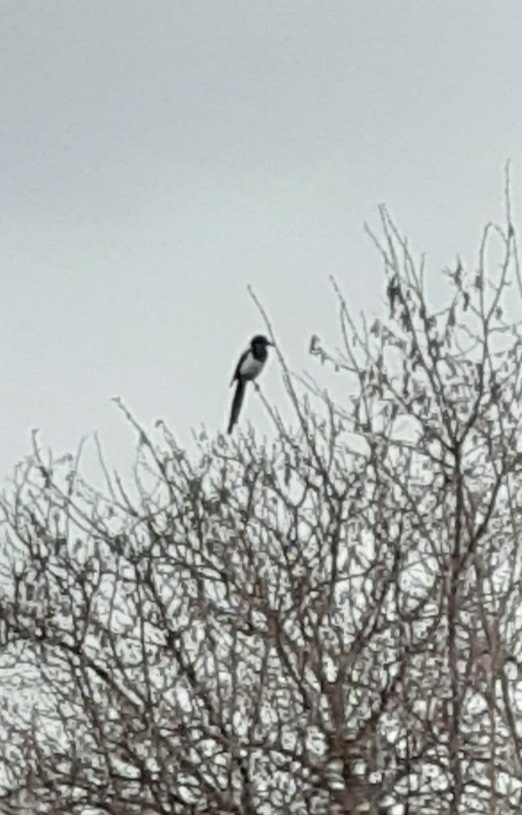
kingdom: Animalia
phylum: Chordata
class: Aves
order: Passeriformes
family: Corvidae
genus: Pica
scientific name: Pica pica
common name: Eurasian magpie
